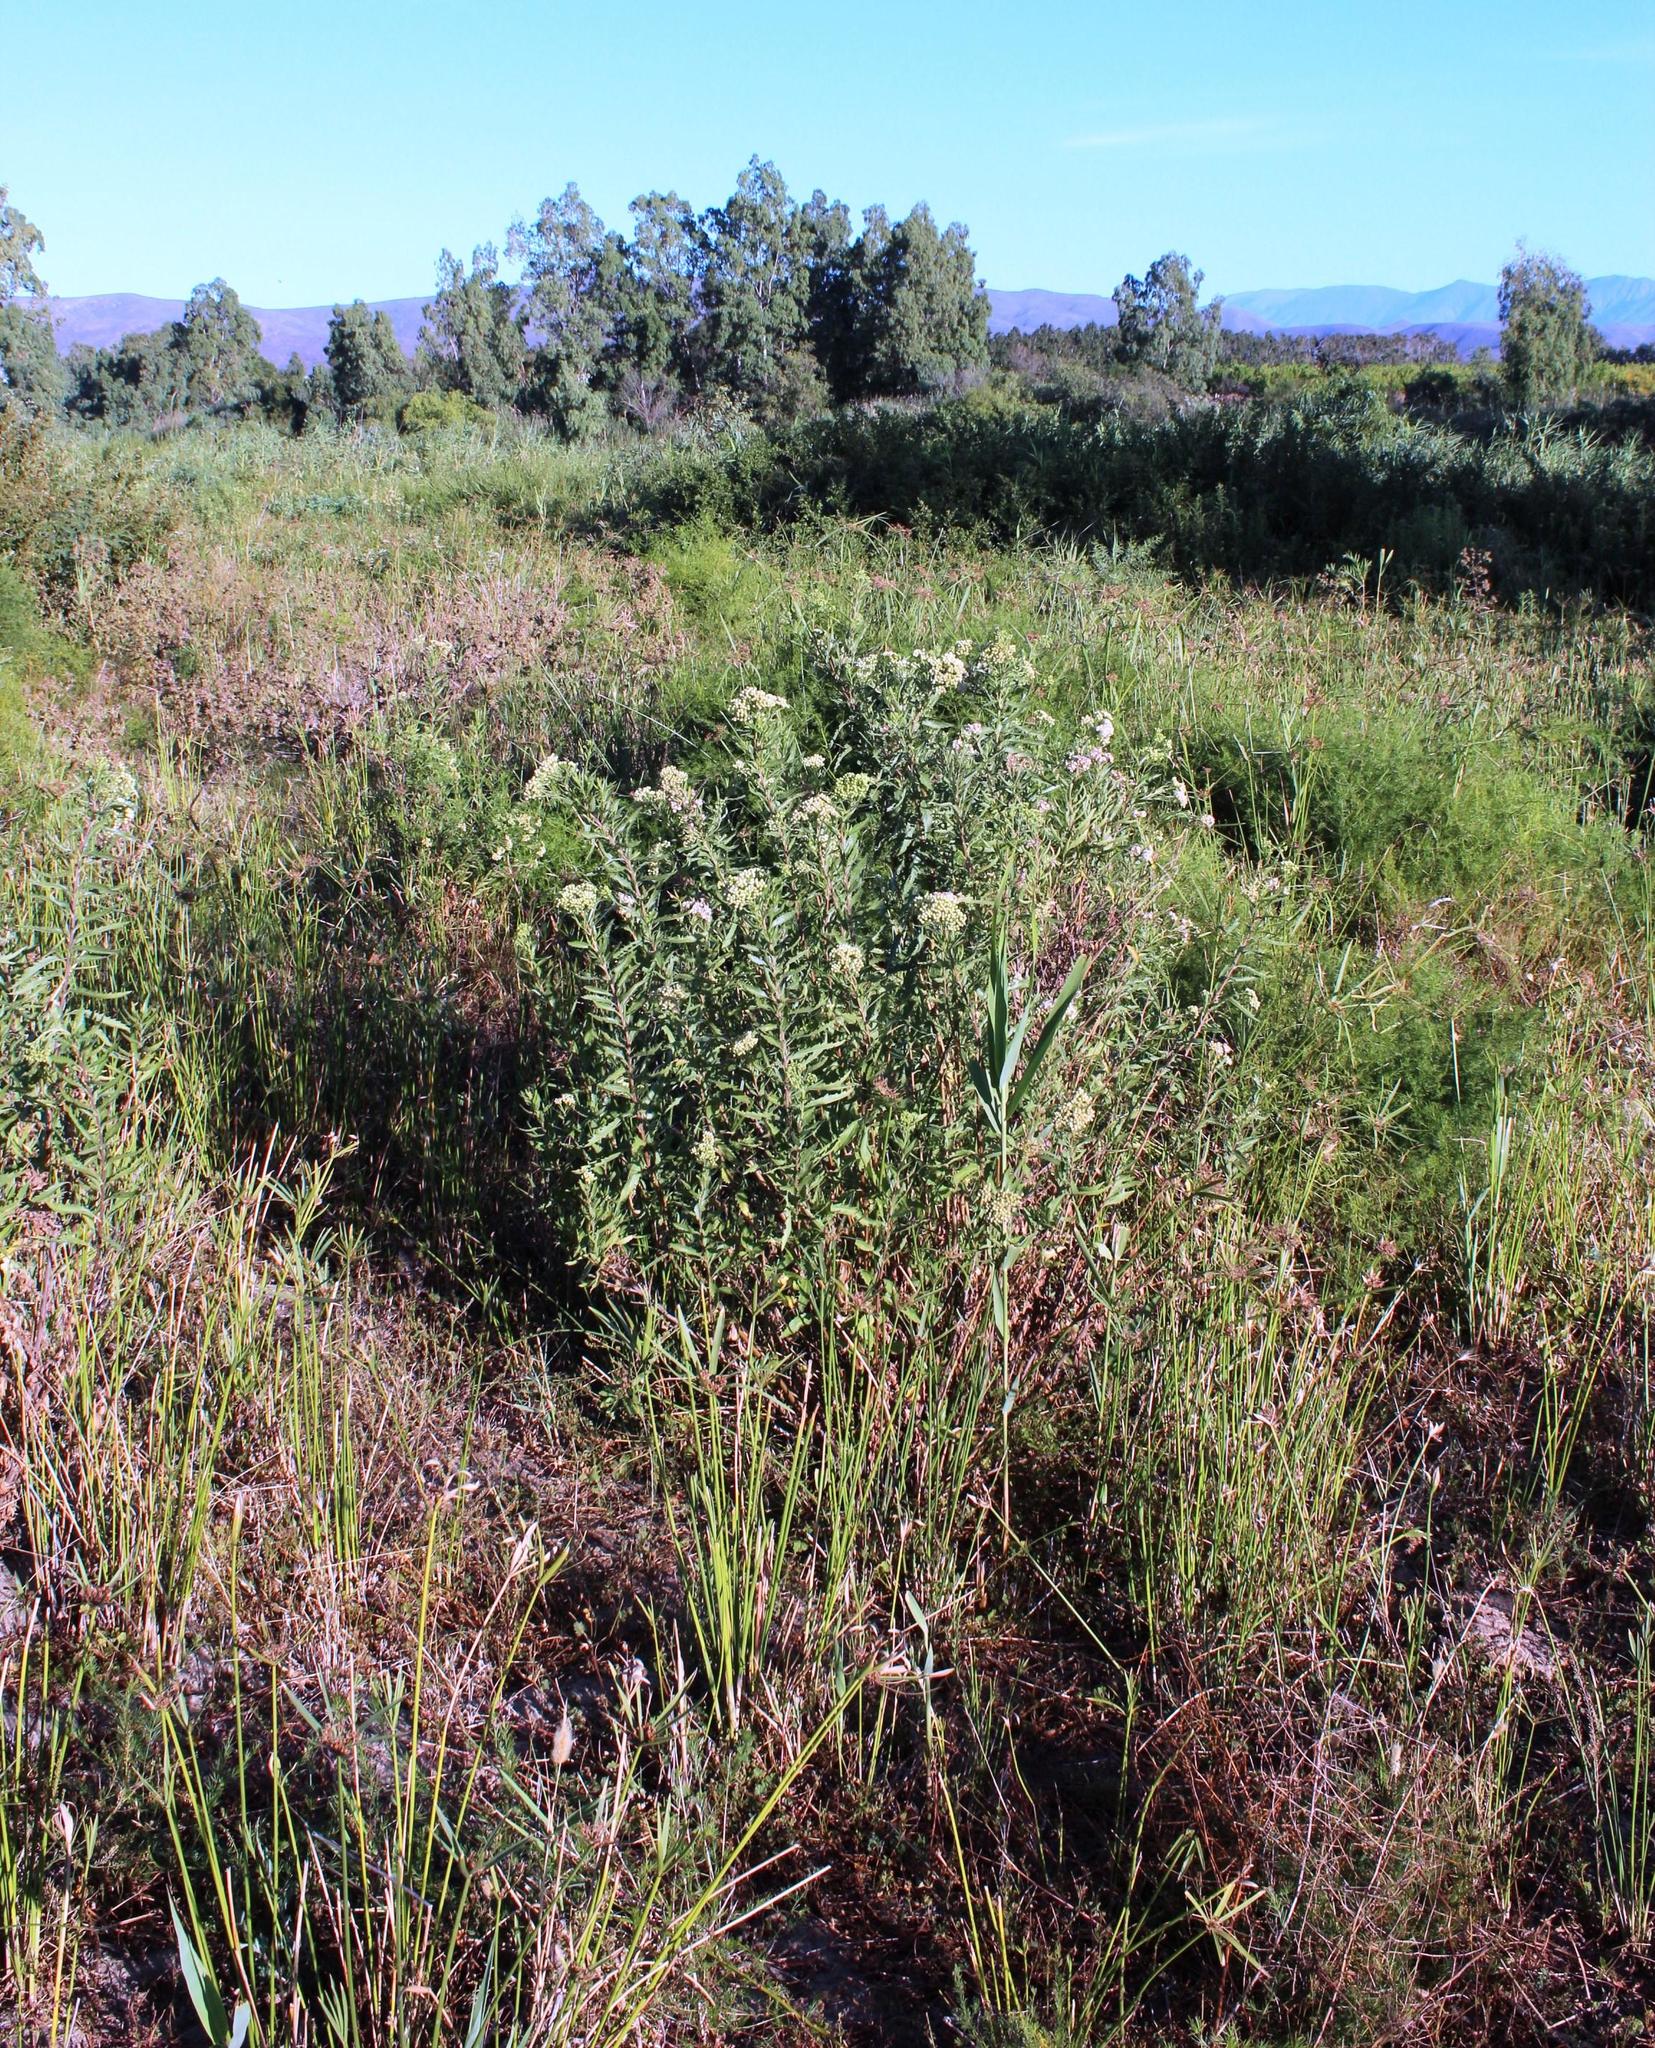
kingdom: Plantae
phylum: Tracheophyta
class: Magnoliopsida
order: Asterales
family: Asteraceae
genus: Nidorella
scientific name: Nidorella ivifolia
